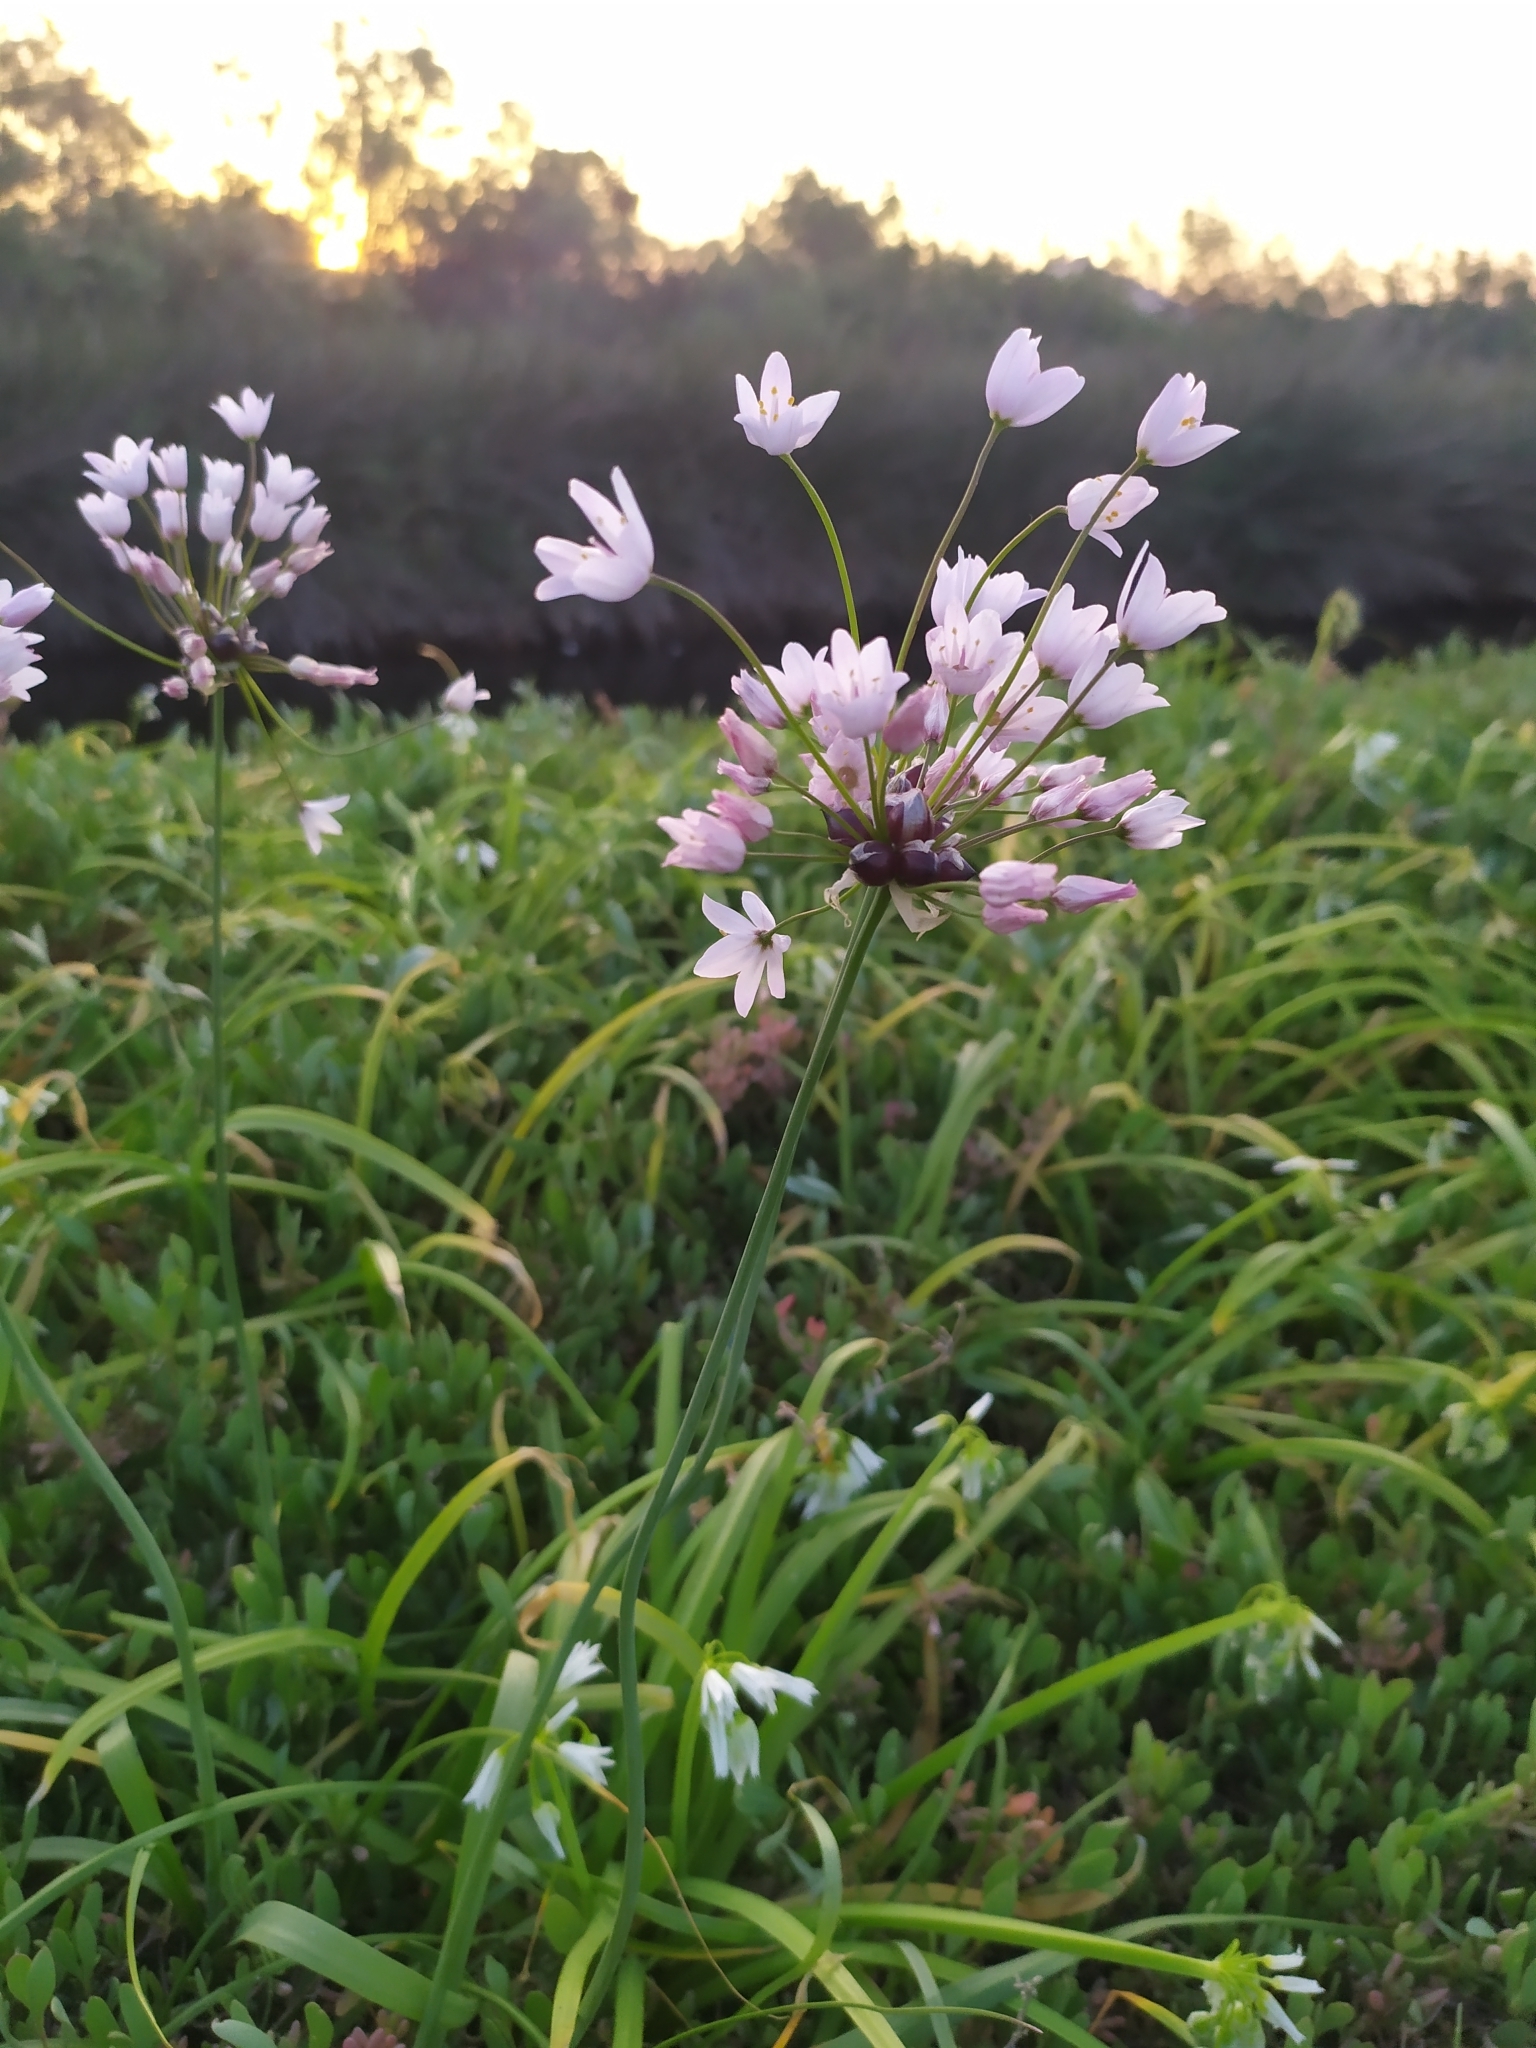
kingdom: Plantae
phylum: Tracheophyta
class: Liliopsida
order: Asparagales
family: Amaryllidaceae
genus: Allium
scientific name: Allium roseum
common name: Rosy garlic
